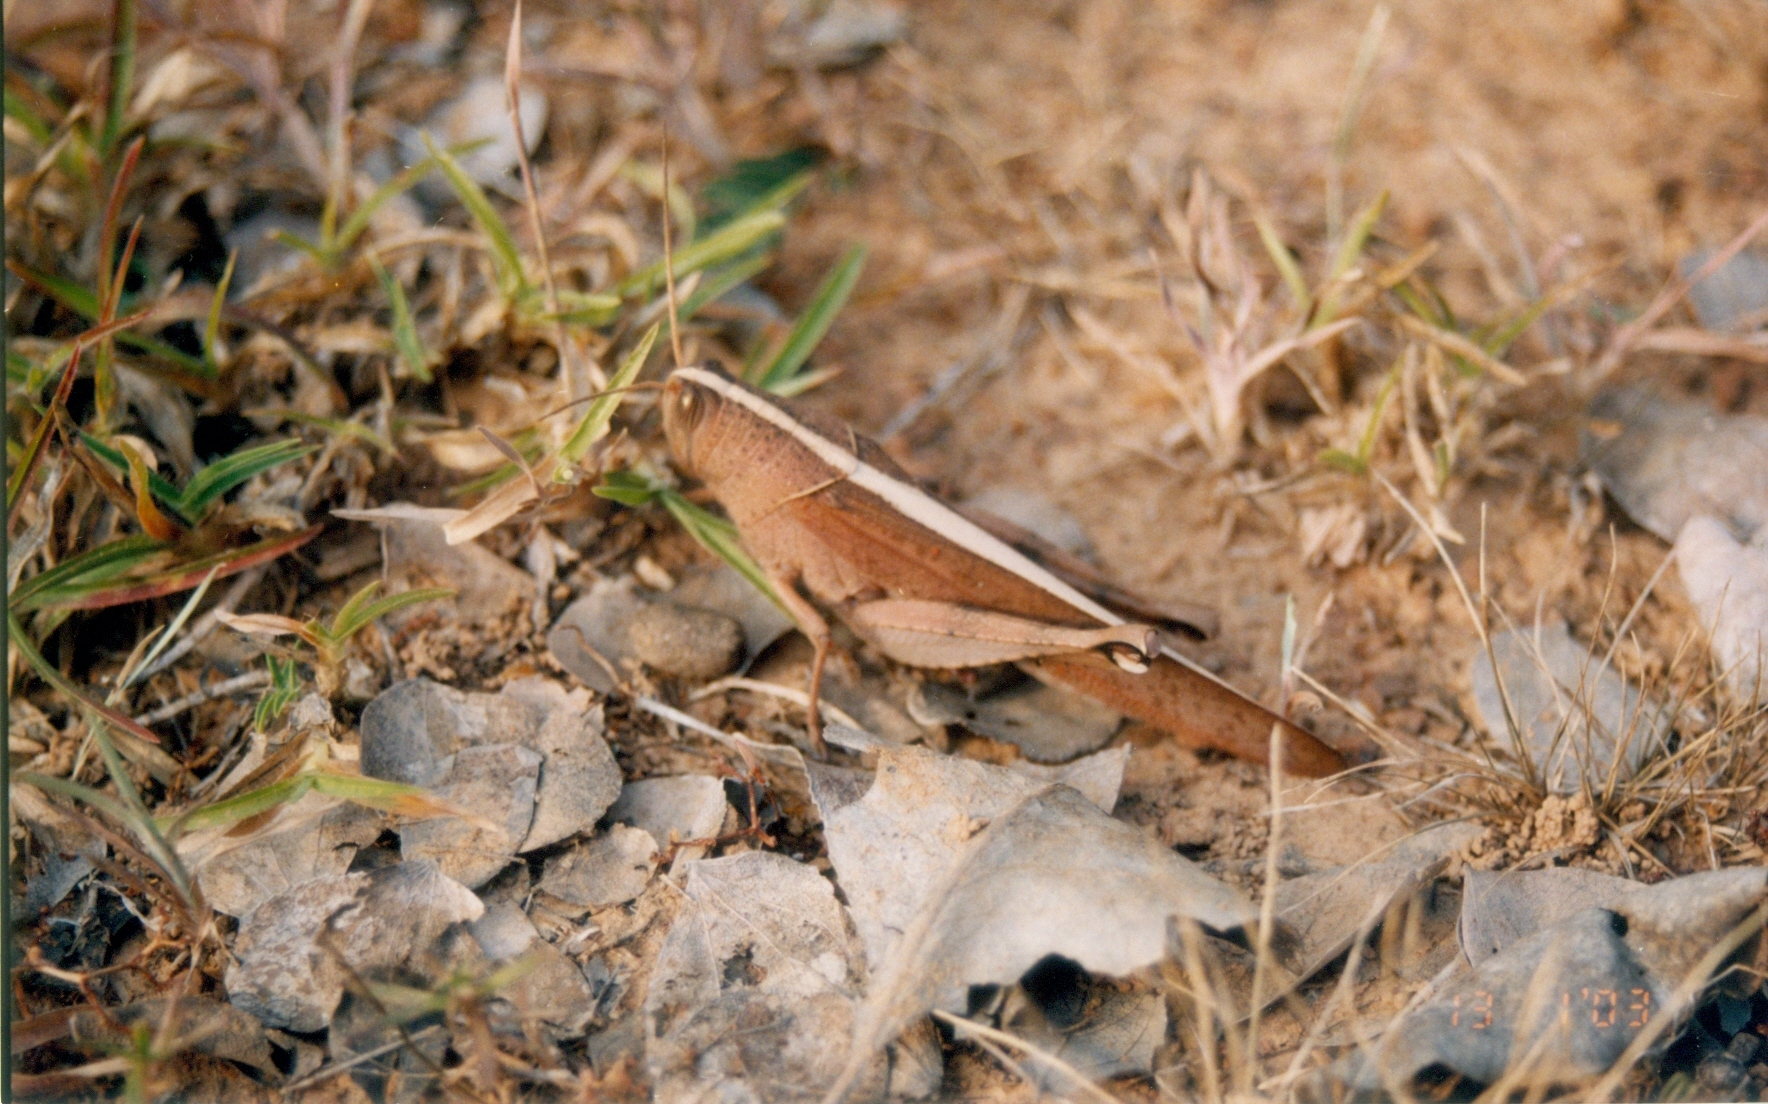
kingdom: Animalia
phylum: Arthropoda
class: Insecta
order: Orthoptera
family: Acrididae
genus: Pachyacris
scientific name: Pachyacris violascens
